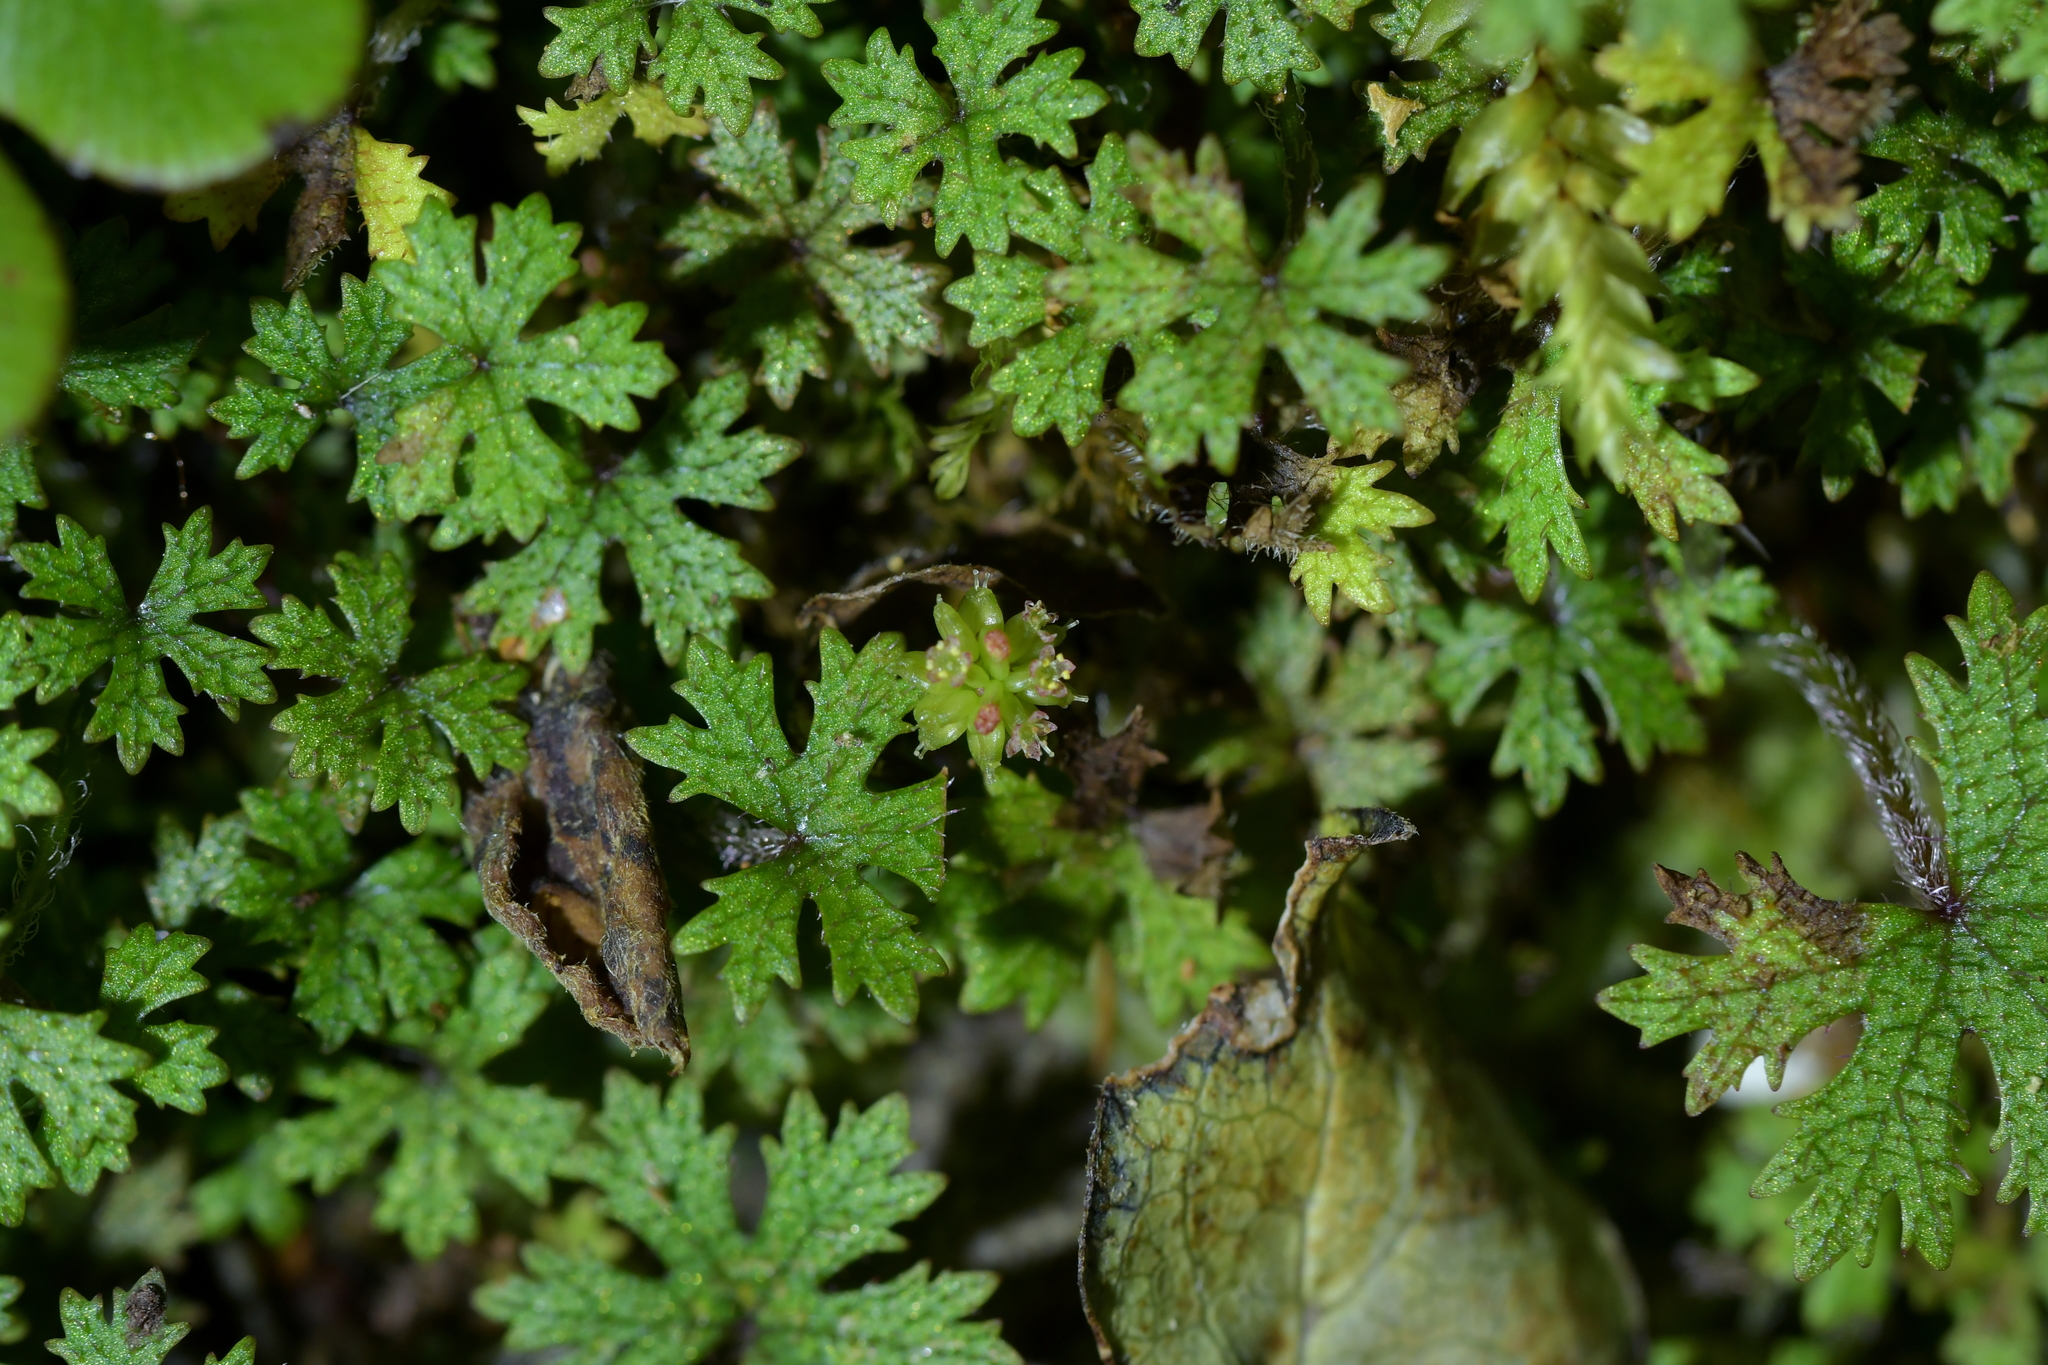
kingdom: Plantae
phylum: Tracheophyta
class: Magnoliopsida
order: Apiales
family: Araliaceae
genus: Hydrocotyle
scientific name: Hydrocotyle dissecta
